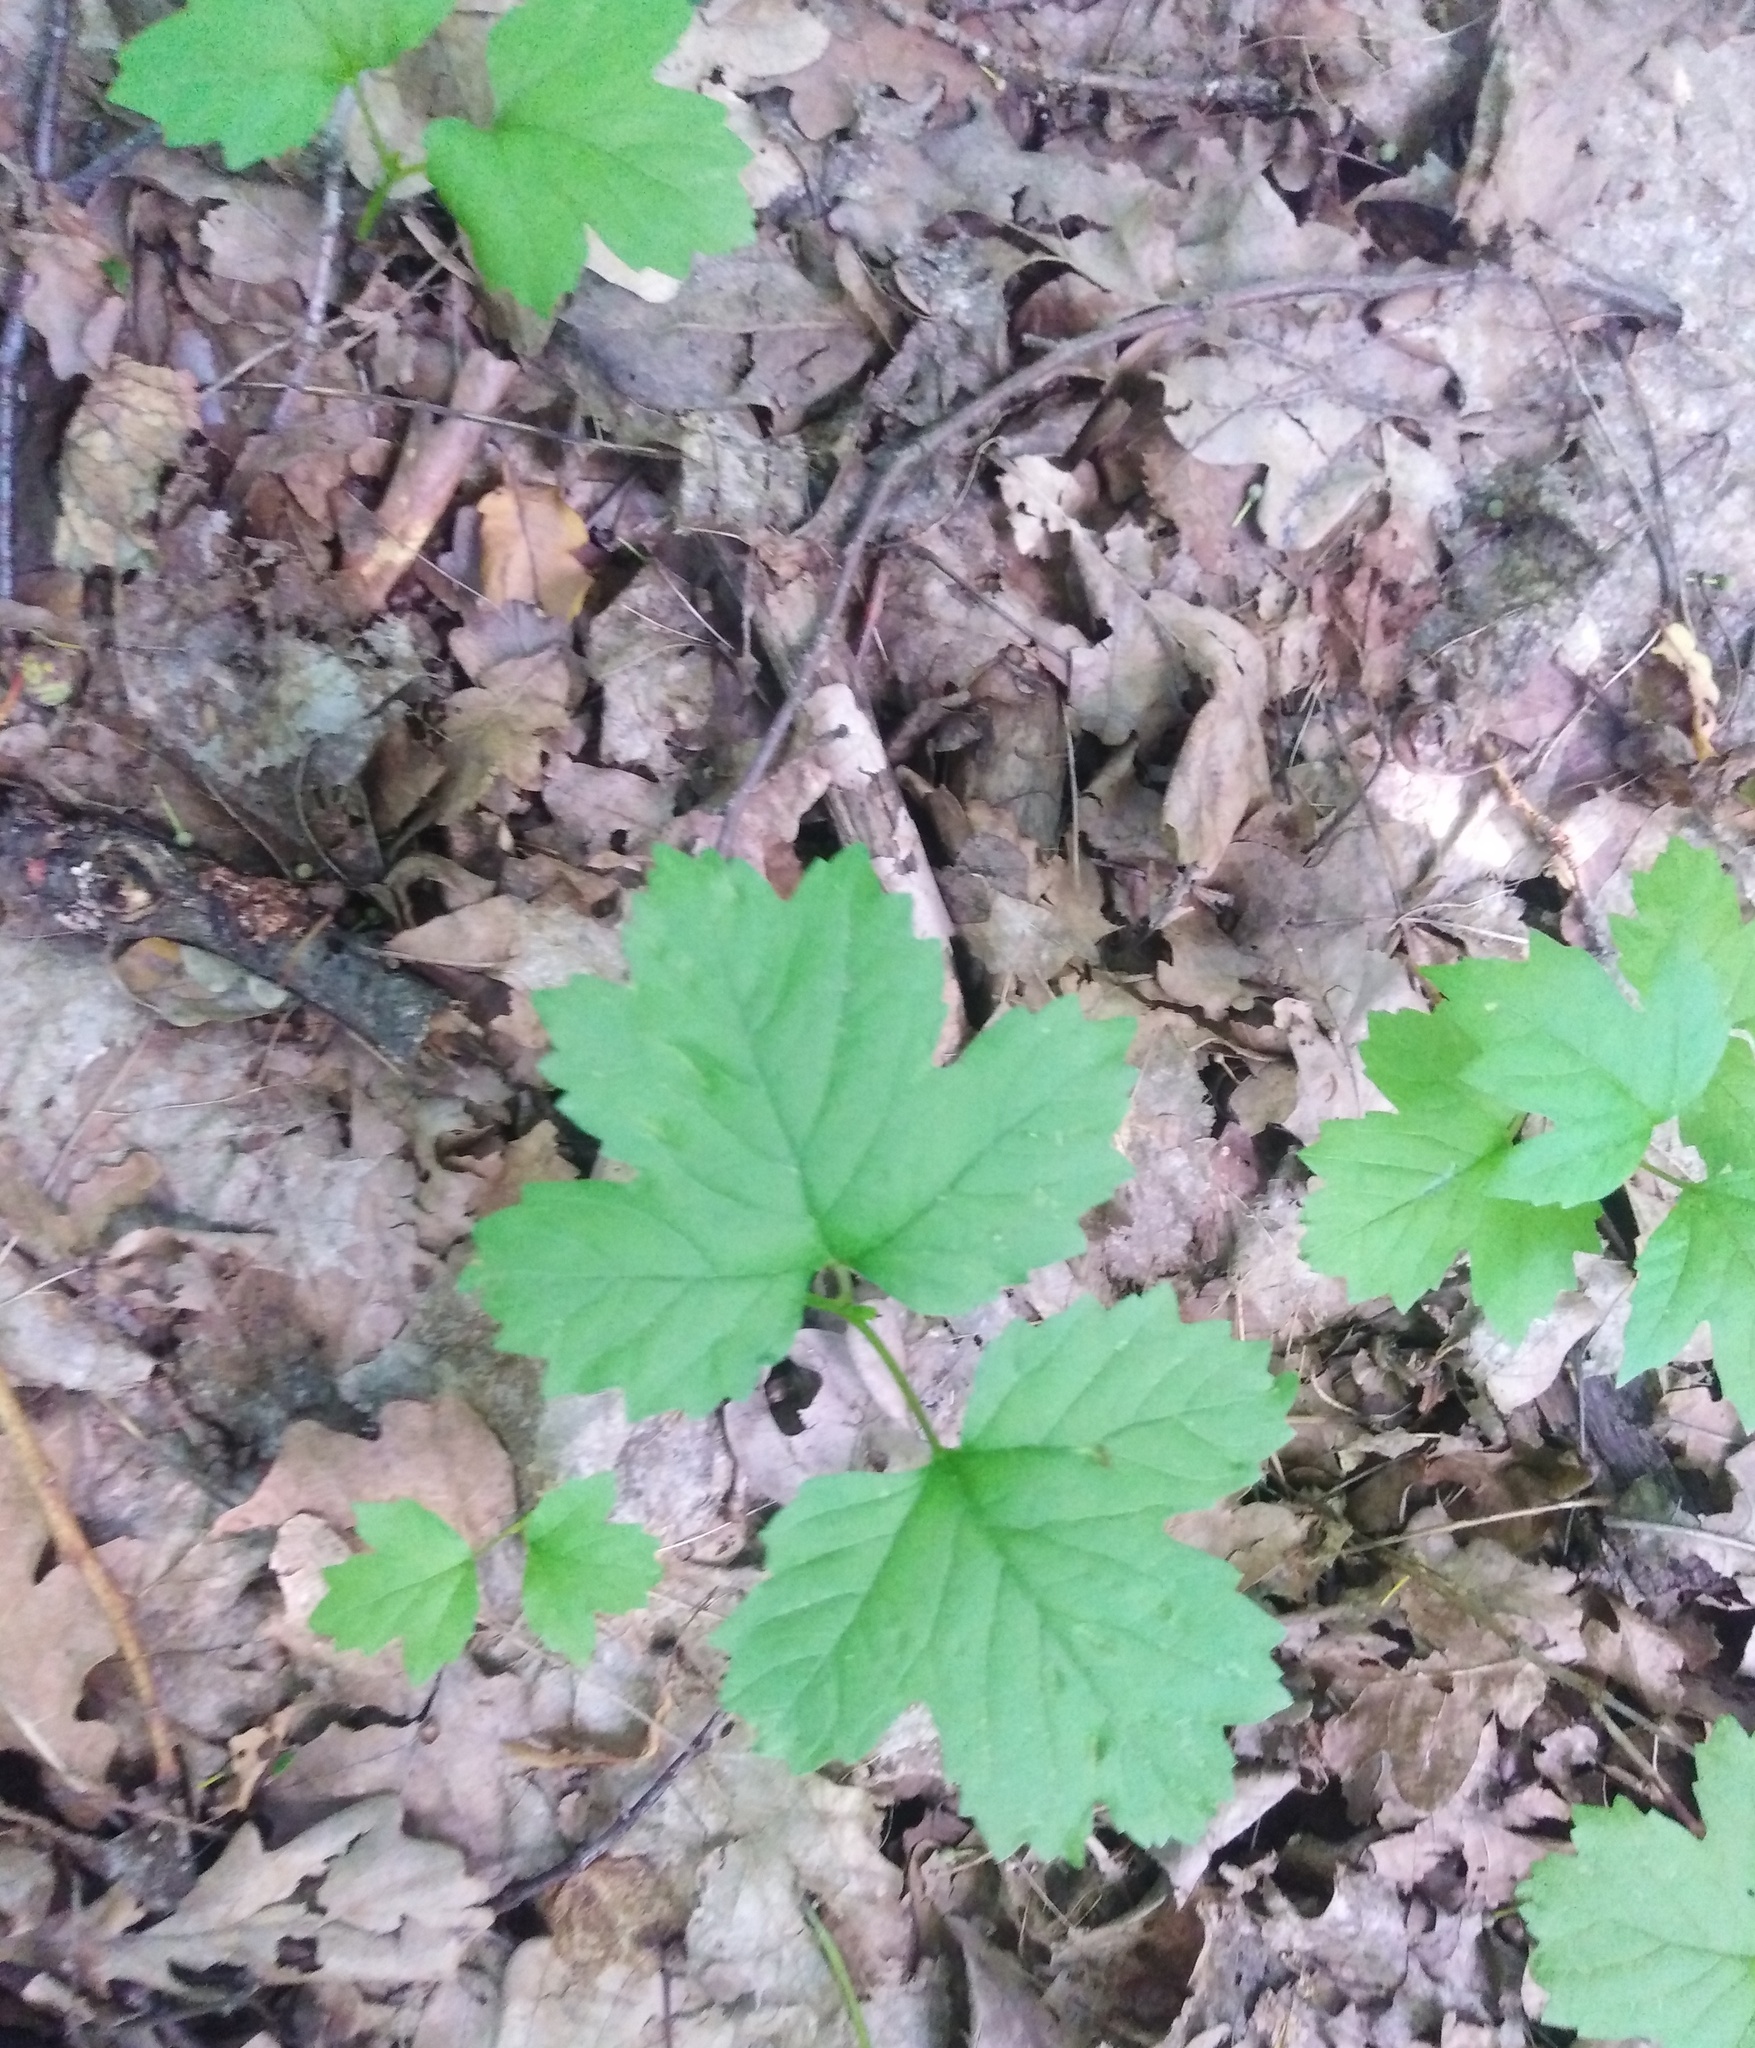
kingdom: Plantae
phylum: Tracheophyta
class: Magnoliopsida
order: Dipsacales
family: Viburnaceae
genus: Viburnum
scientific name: Viburnum opulus
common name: Guelder-rose
